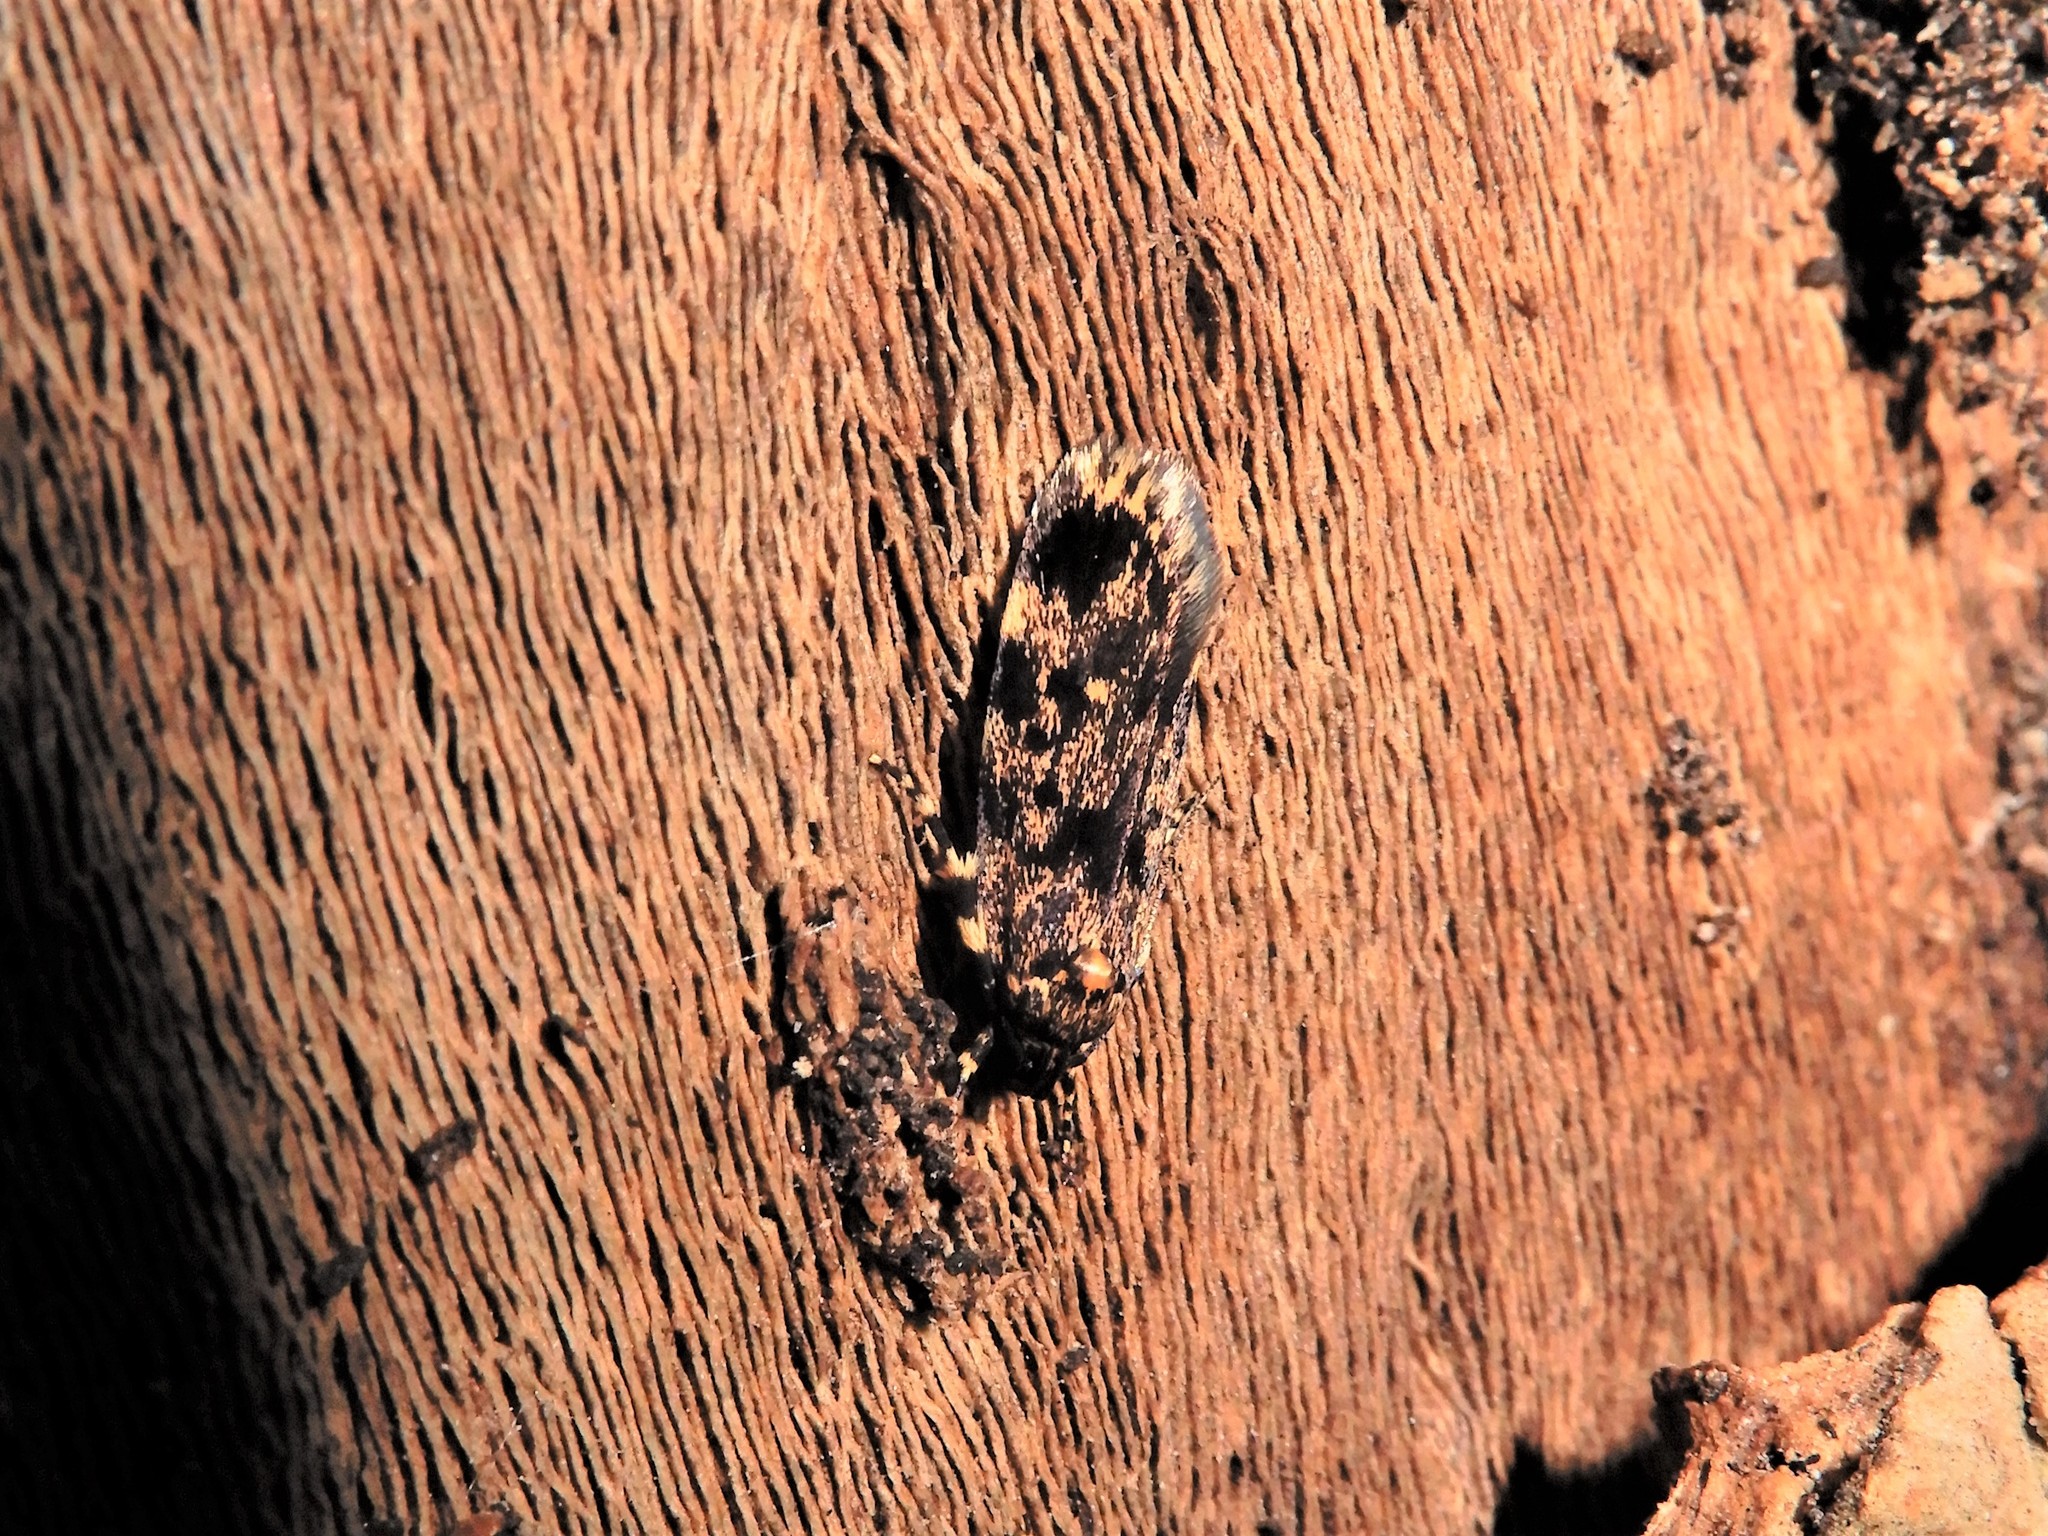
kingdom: Animalia
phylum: Arthropoda
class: Insecta
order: Lepidoptera
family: Oecophoridae
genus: Barea
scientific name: Barea codrella
